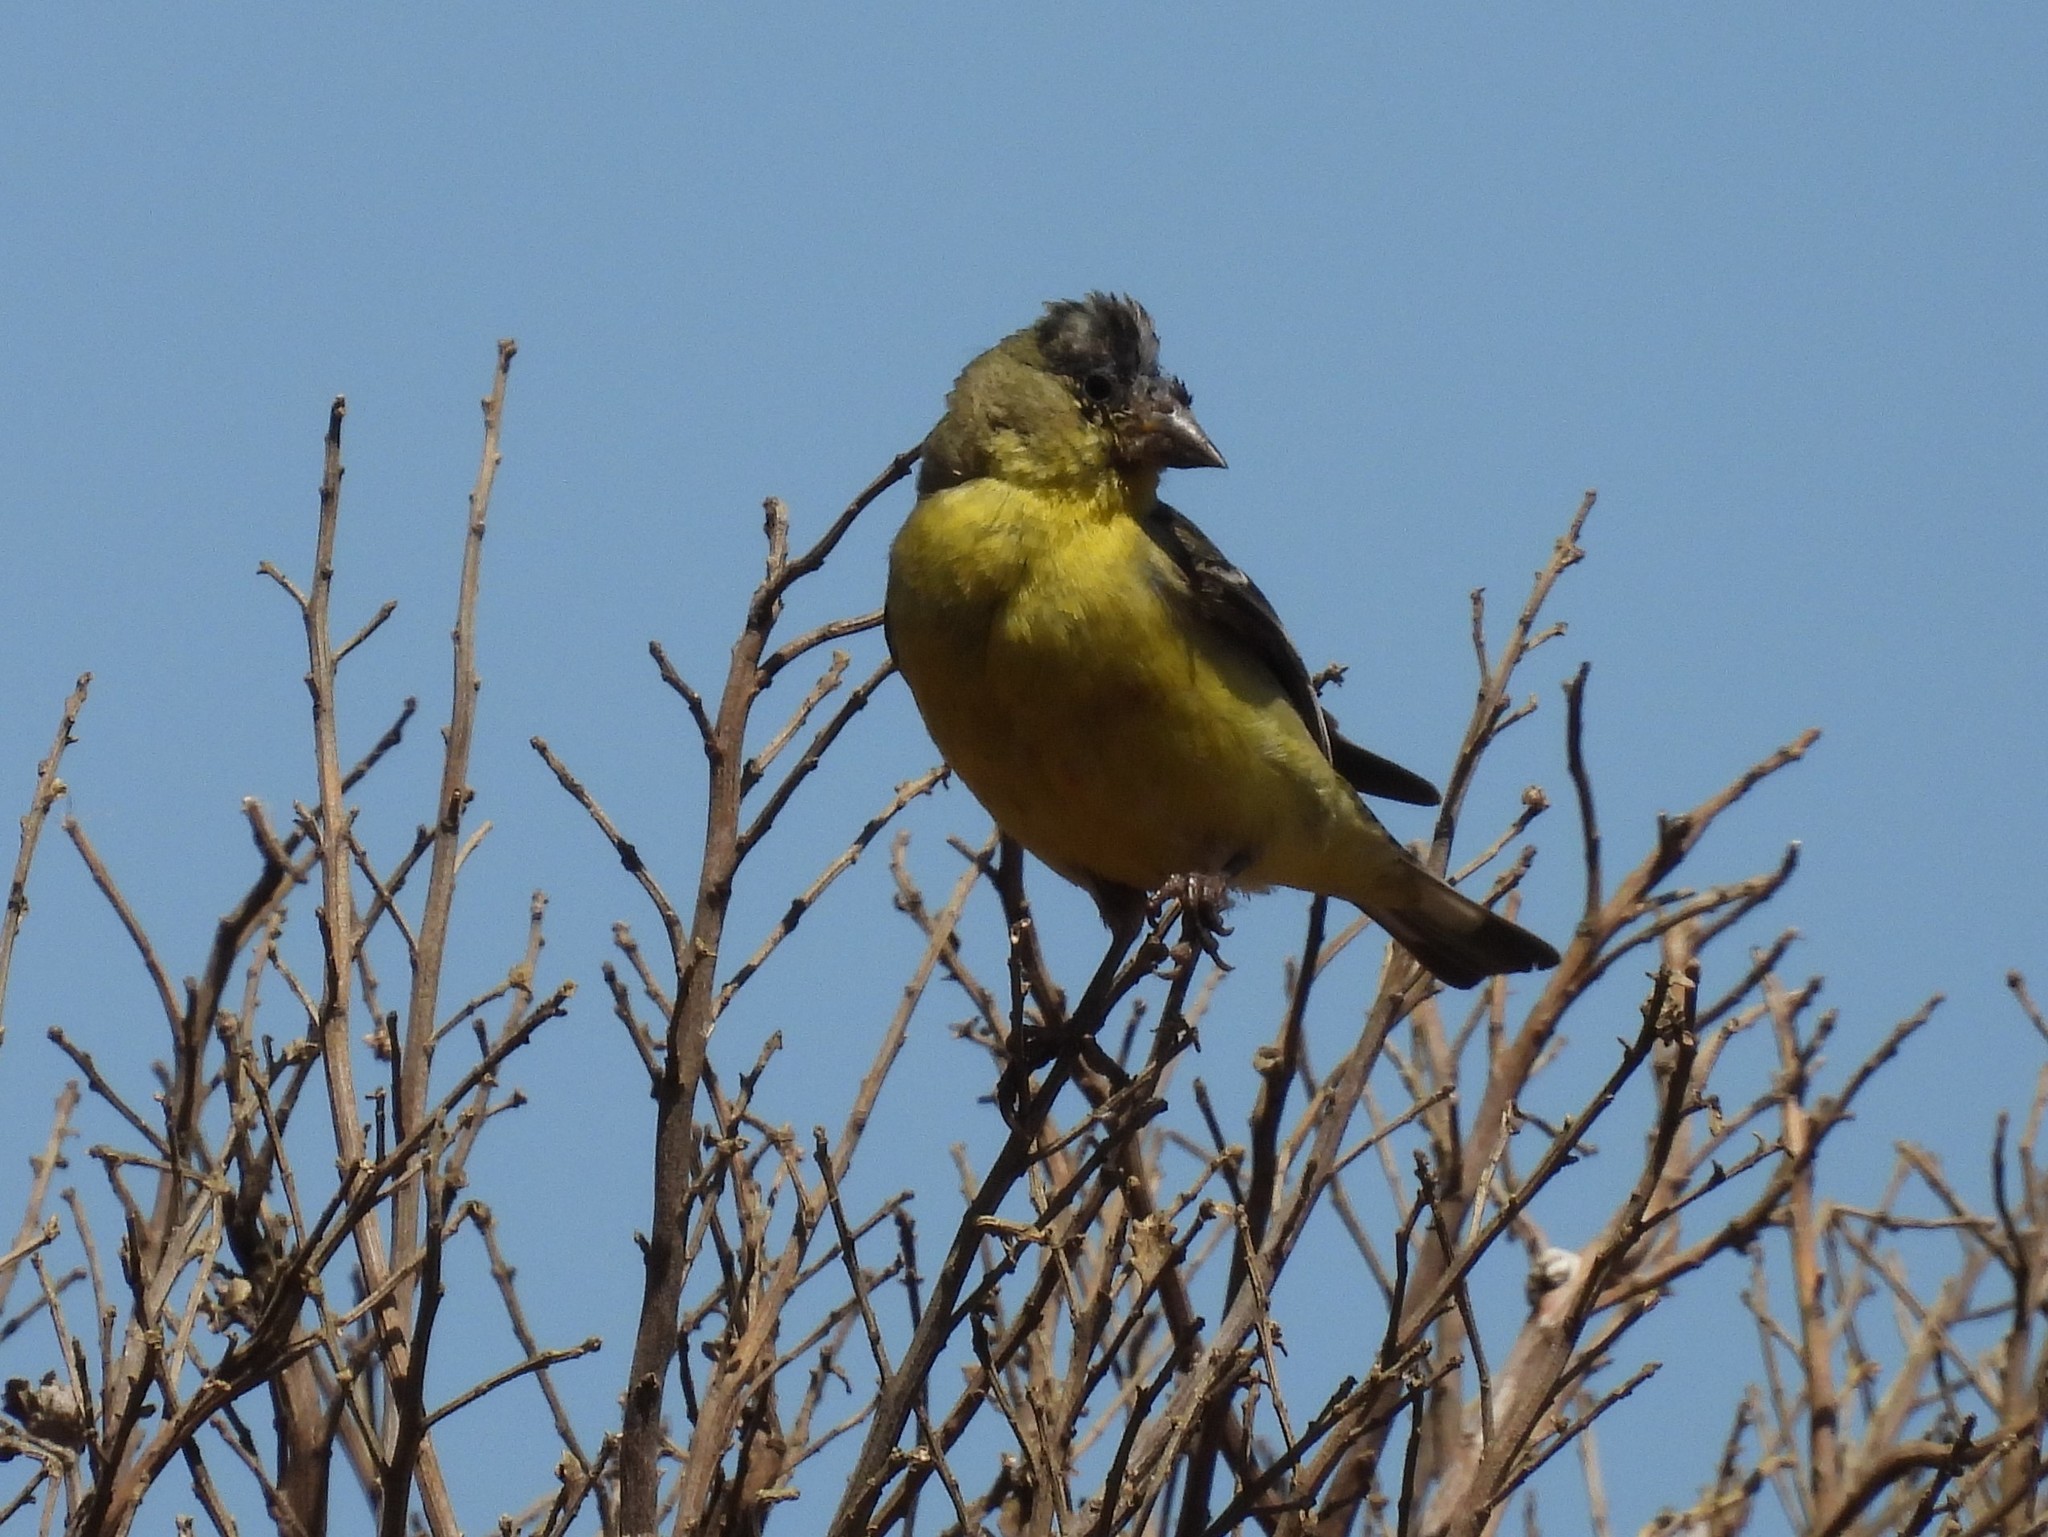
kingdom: Animalia
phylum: Chordata
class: Aves
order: Passeriformes
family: Fringillidae
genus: Spinus
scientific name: Spinus psaltria
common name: Lesser goldfinch
